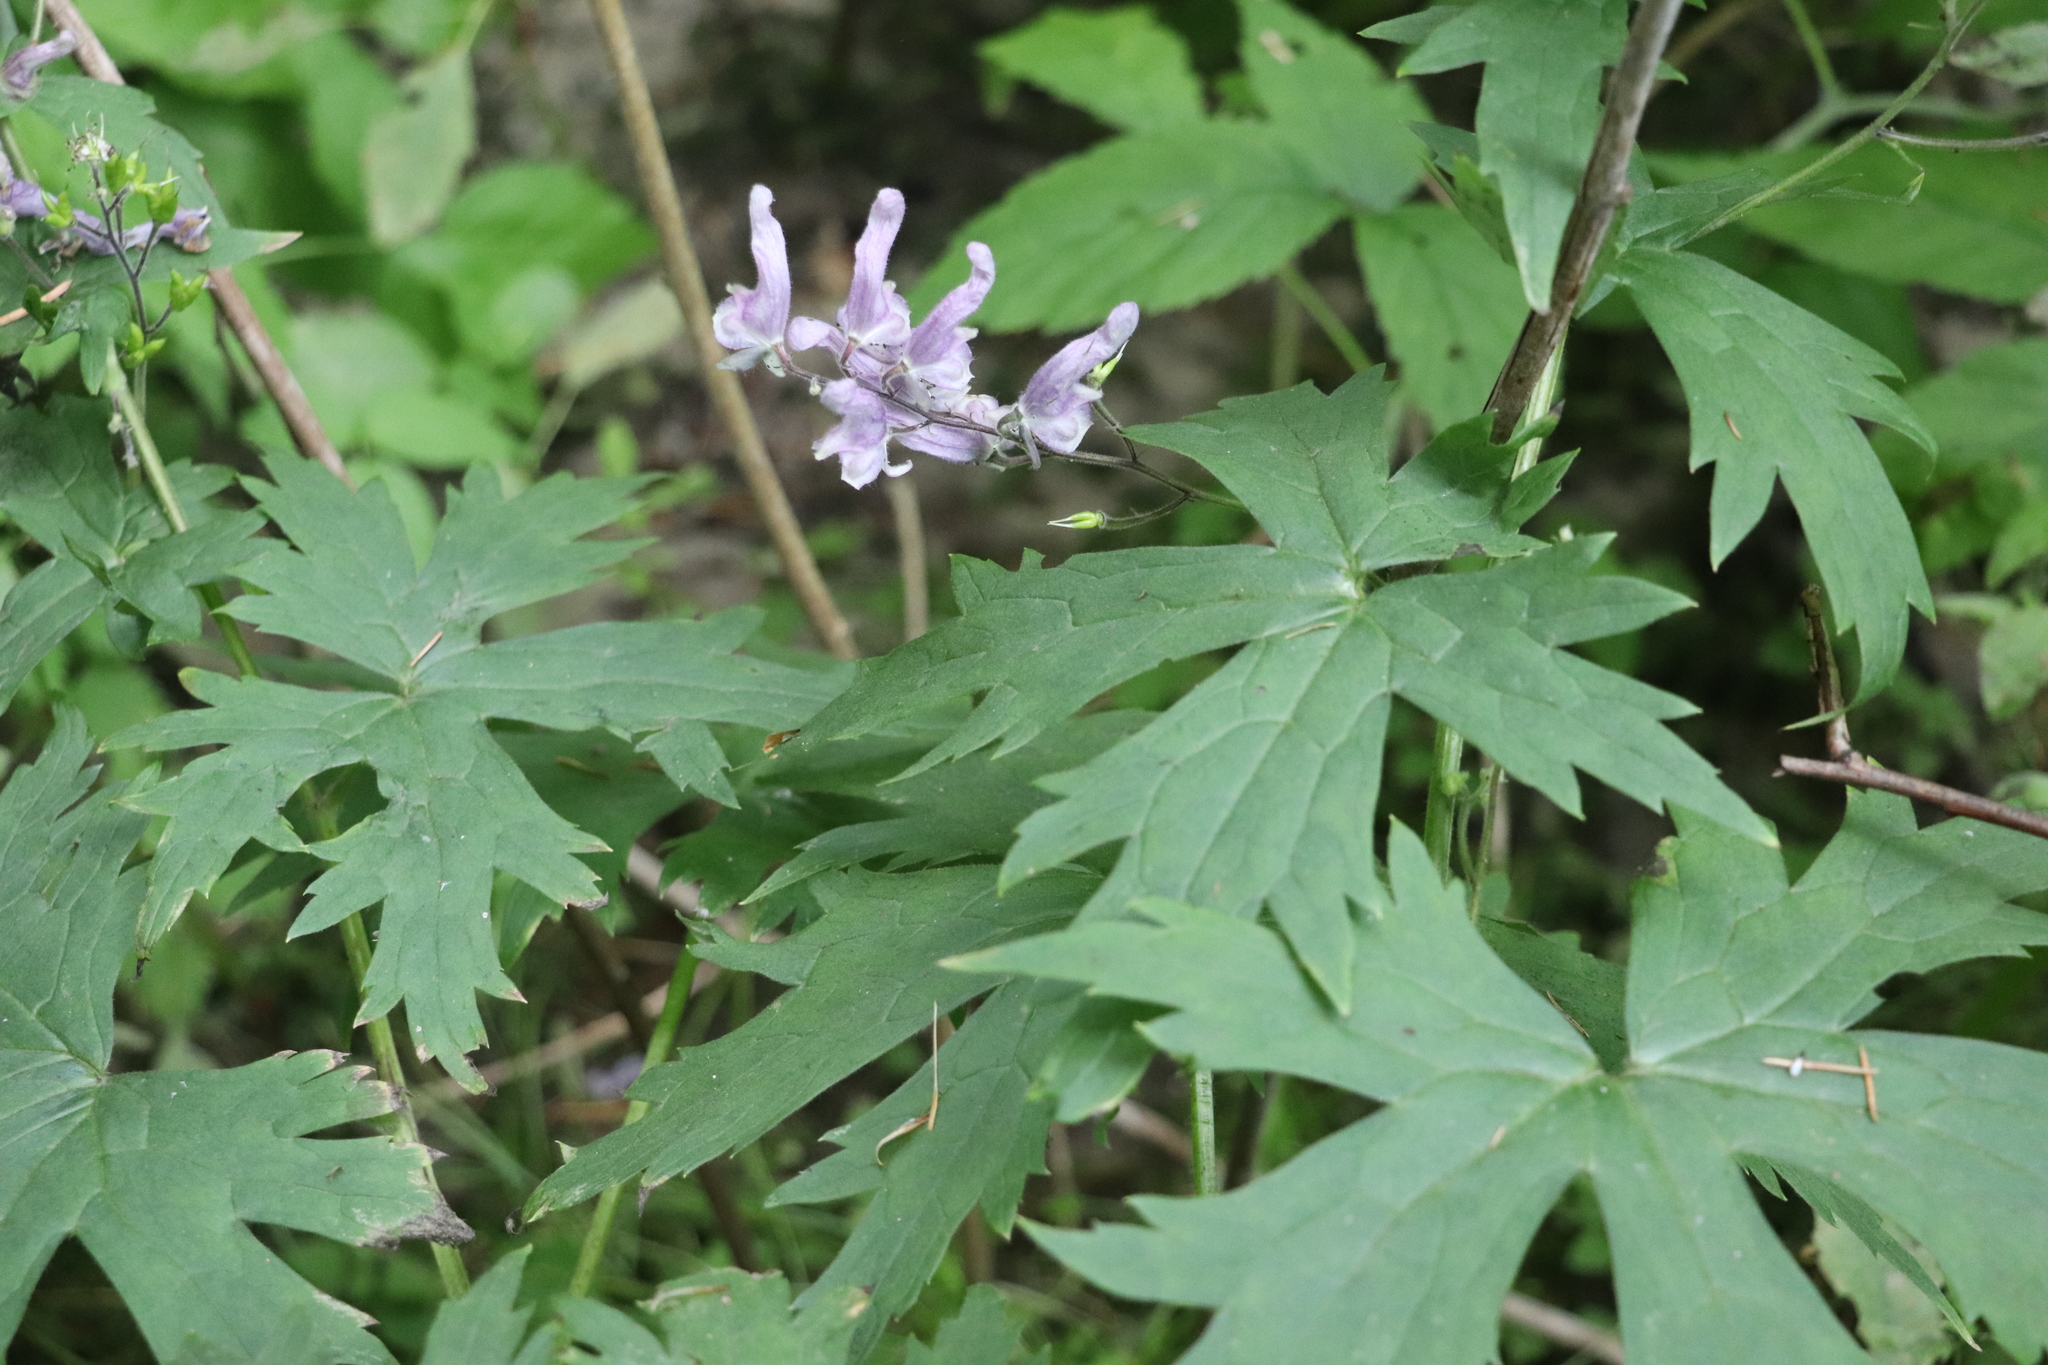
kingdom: Plantae
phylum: Tracheophyta
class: Magnoliopsida
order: Ranunculales
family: Ranunculaceae
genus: Aconitum
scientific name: Aconitum septentrionale
